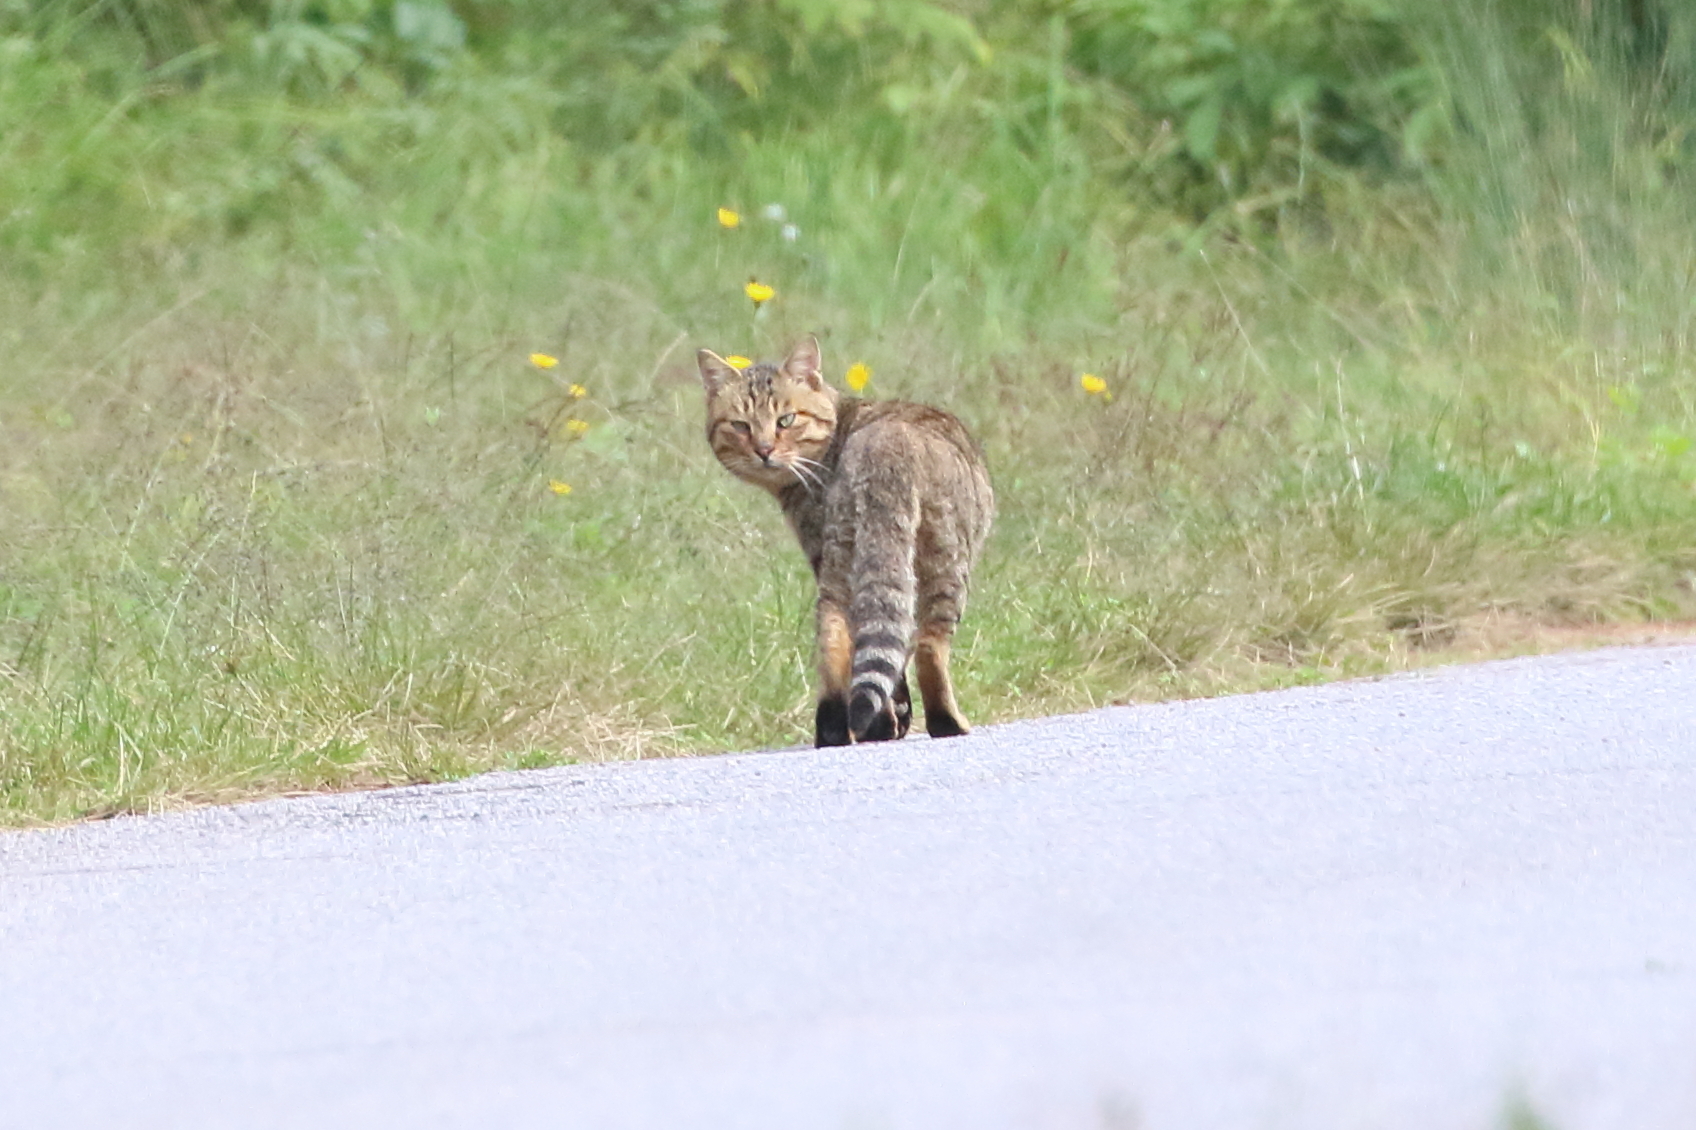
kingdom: Animalia
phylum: Chordata
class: Mammalia
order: Carnivora
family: Felidae
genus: Felis
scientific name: Felis catus
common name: Domestic cat
